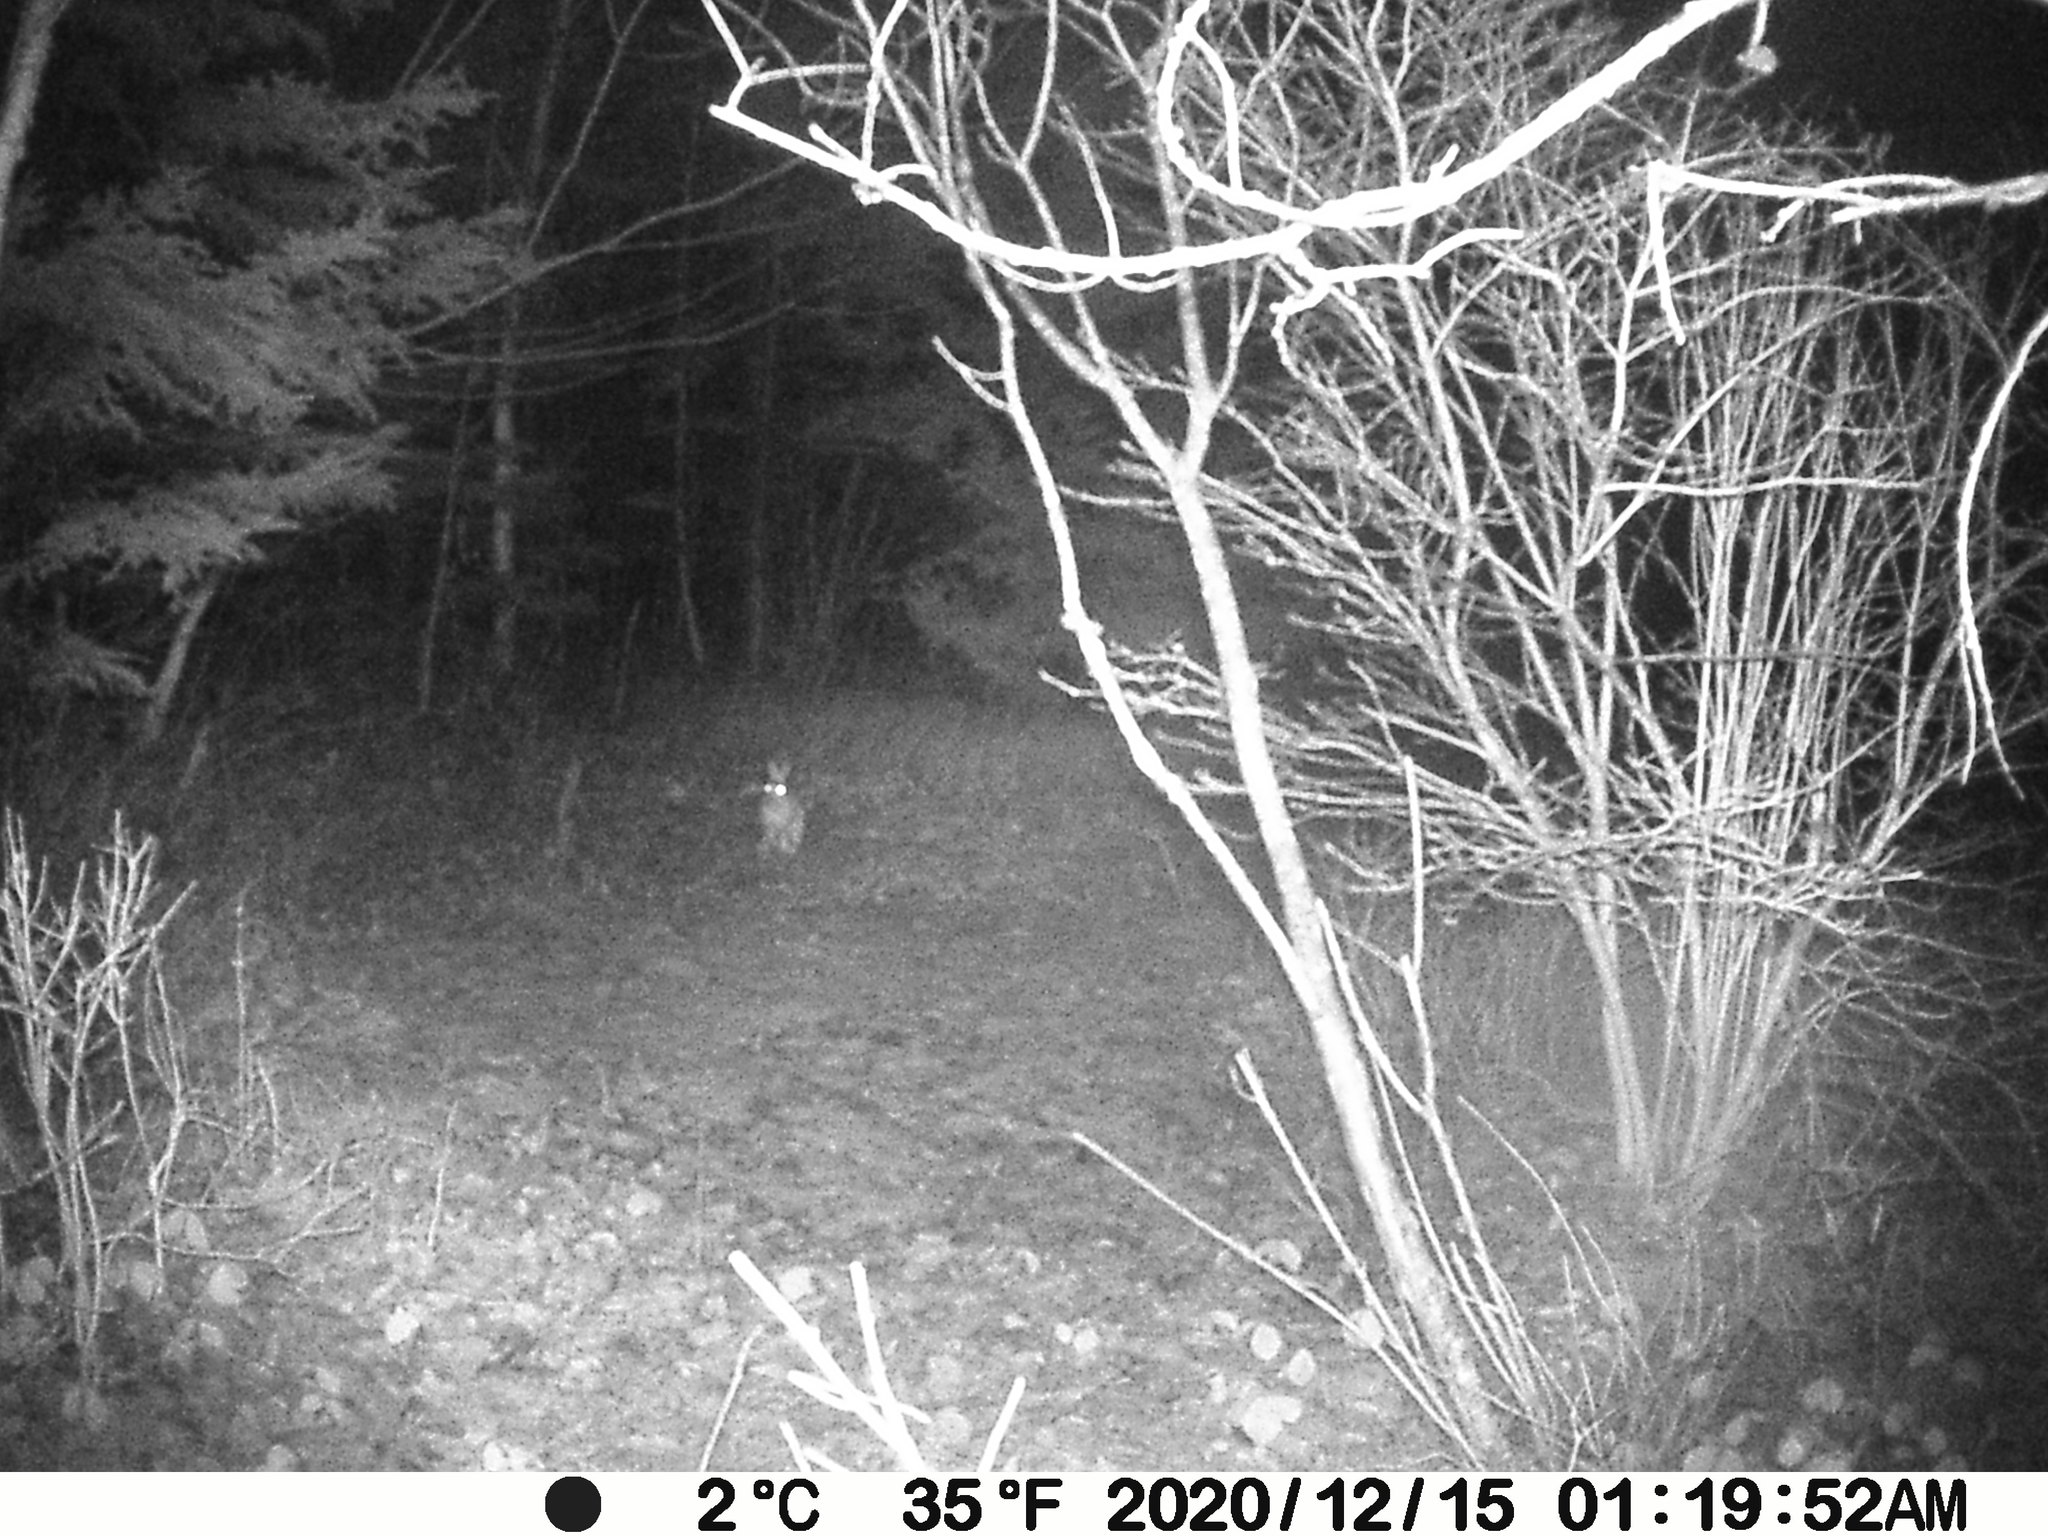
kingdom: Animalia
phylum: Chordata
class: Mammalia
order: Lagomorpha
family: Leporidae
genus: Lepus
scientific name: Lepus americanus
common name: Snowshoe hare
